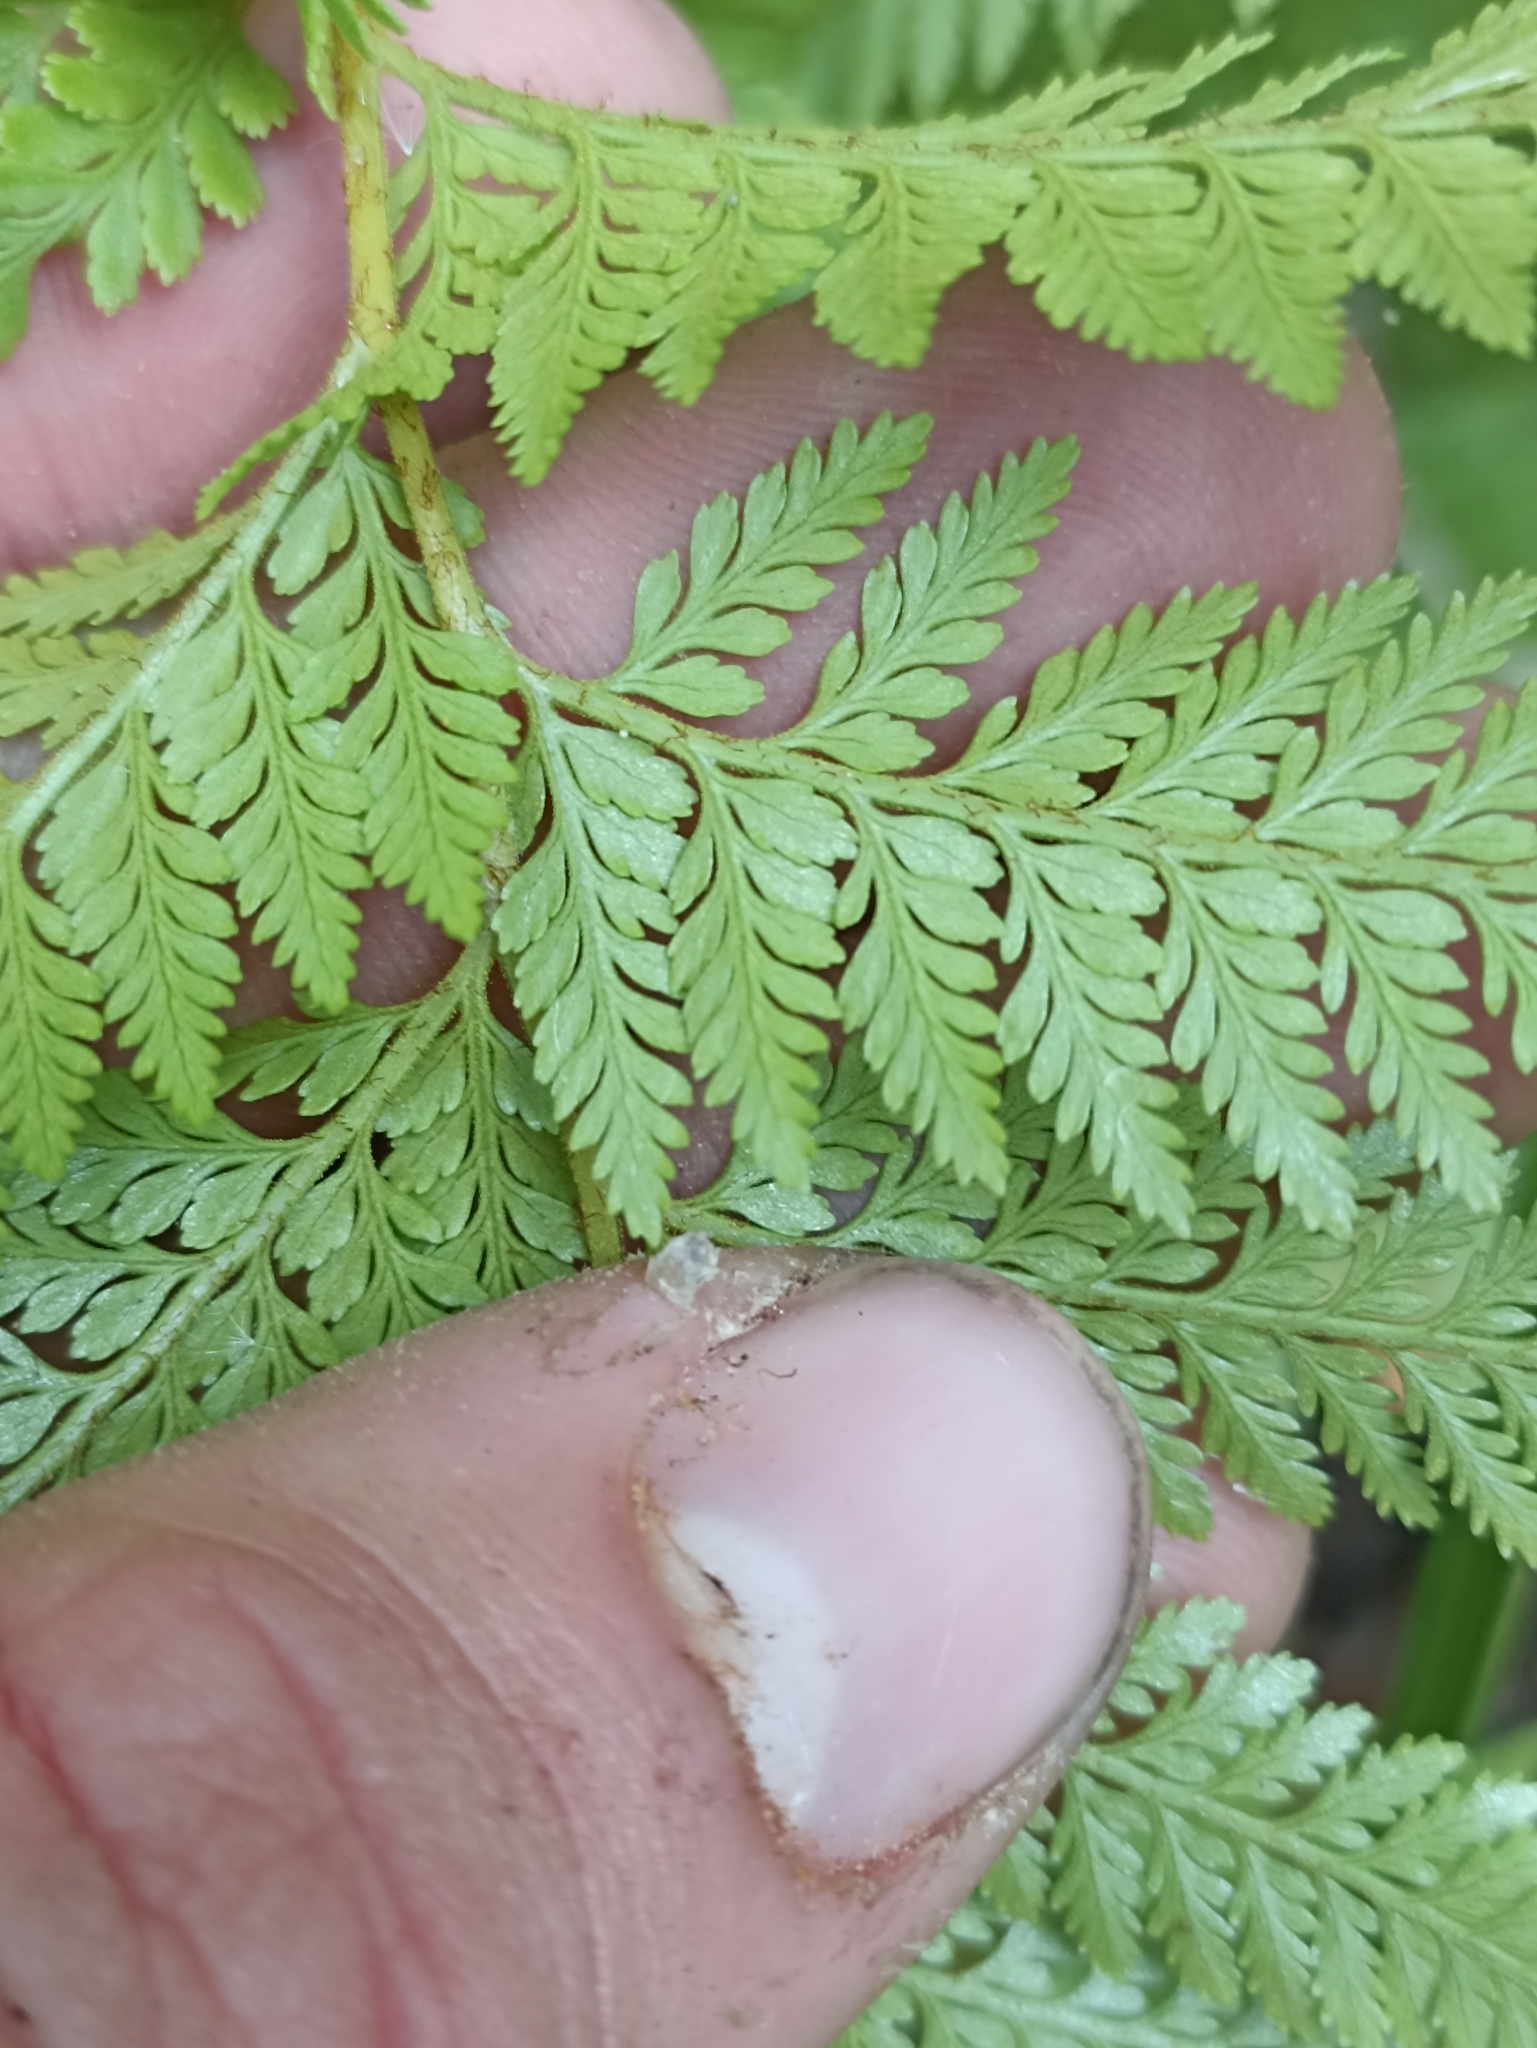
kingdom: Plantae
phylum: Tracheophyta
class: Polypodiopsida
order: Polypodiales
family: Dennstaedtiaceae
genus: Paesia
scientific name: Paesia scaberula
